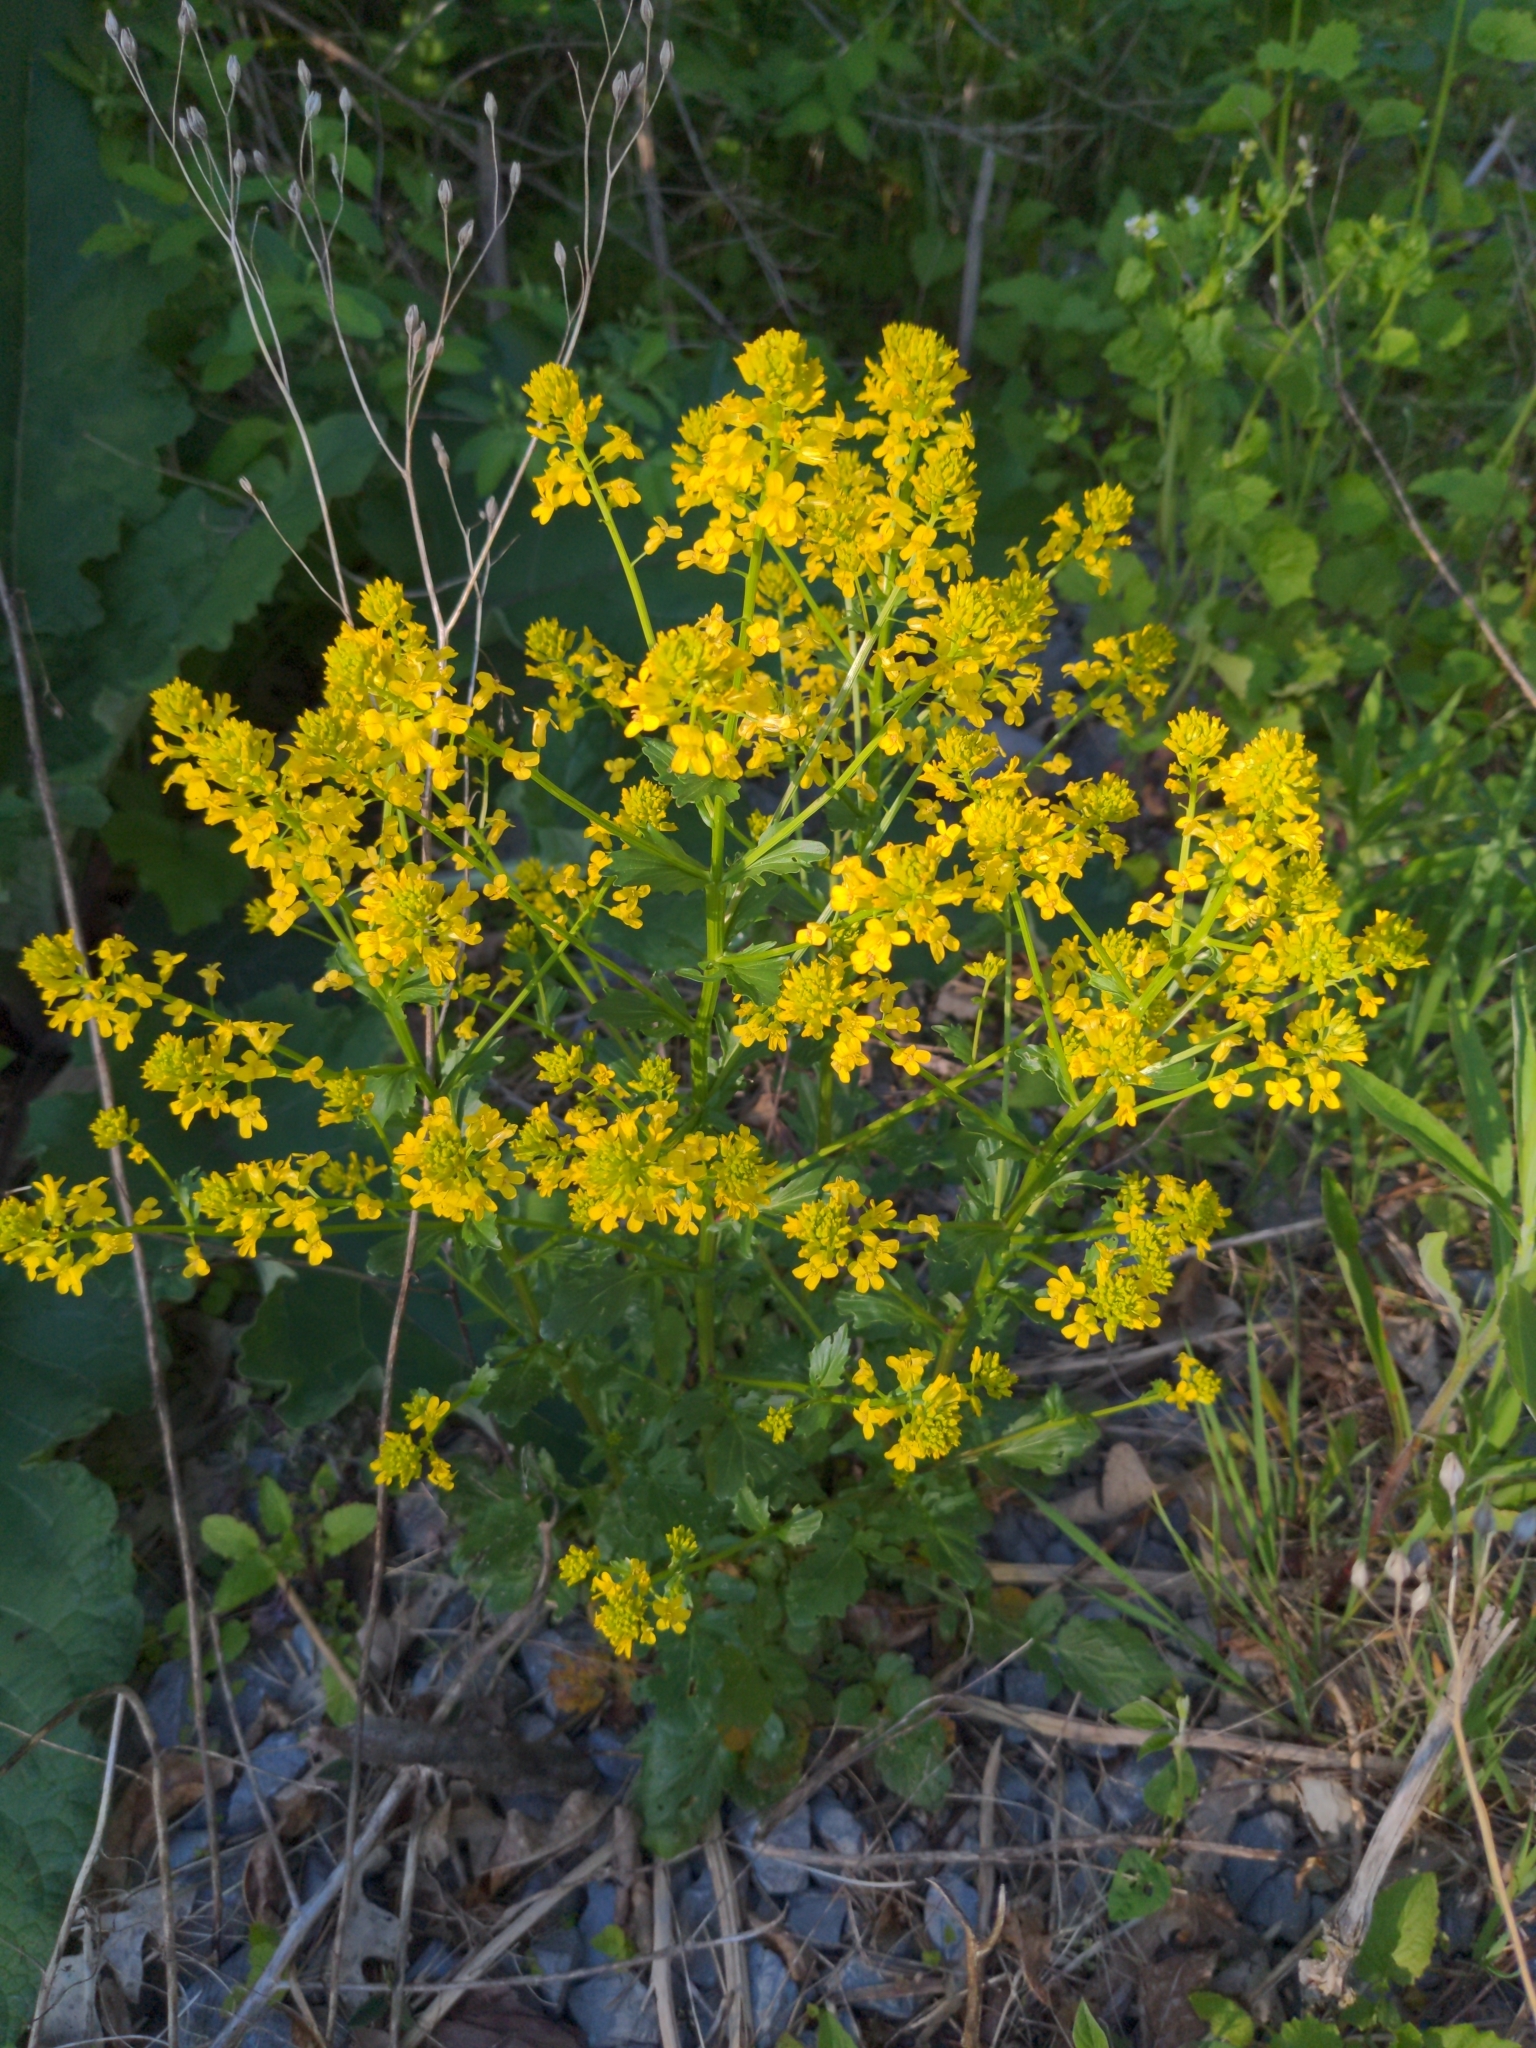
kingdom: Plantae
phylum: Tracheophyta
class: Magnoliopsida
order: Brassicales
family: Brassicaceae
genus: Barbarea
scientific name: Barbarea vulgaris
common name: Cressy-greens
